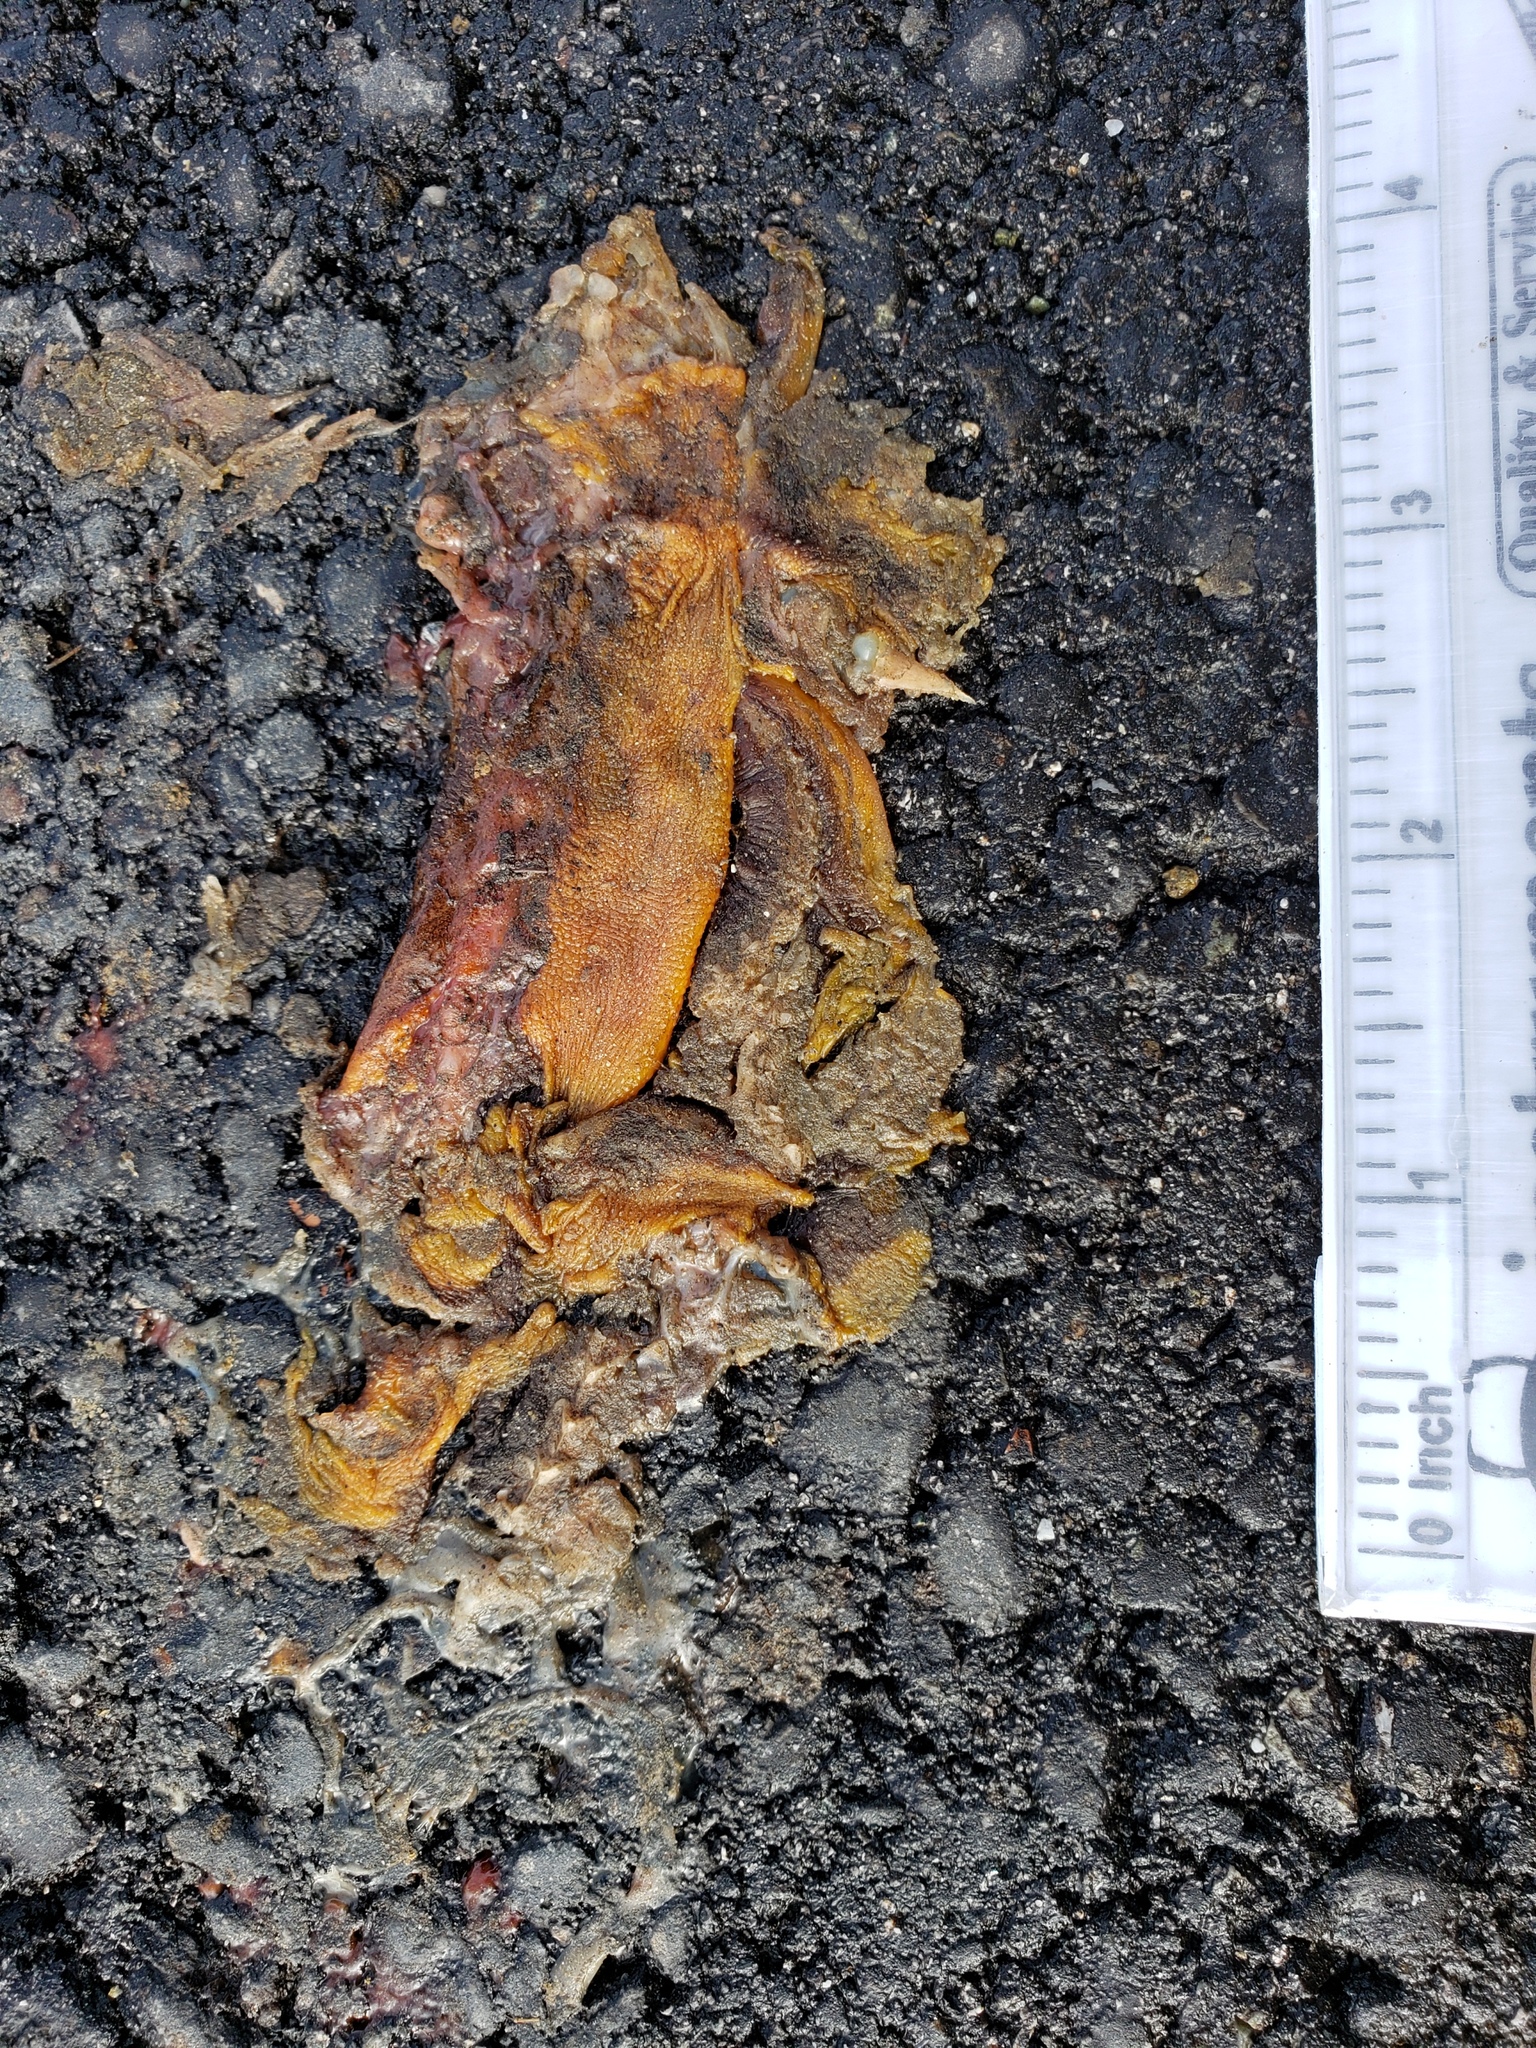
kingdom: Animalia
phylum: Chordata
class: Amphibia
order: Caudata
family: Salamandridae
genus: Taricha
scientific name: Taricha
